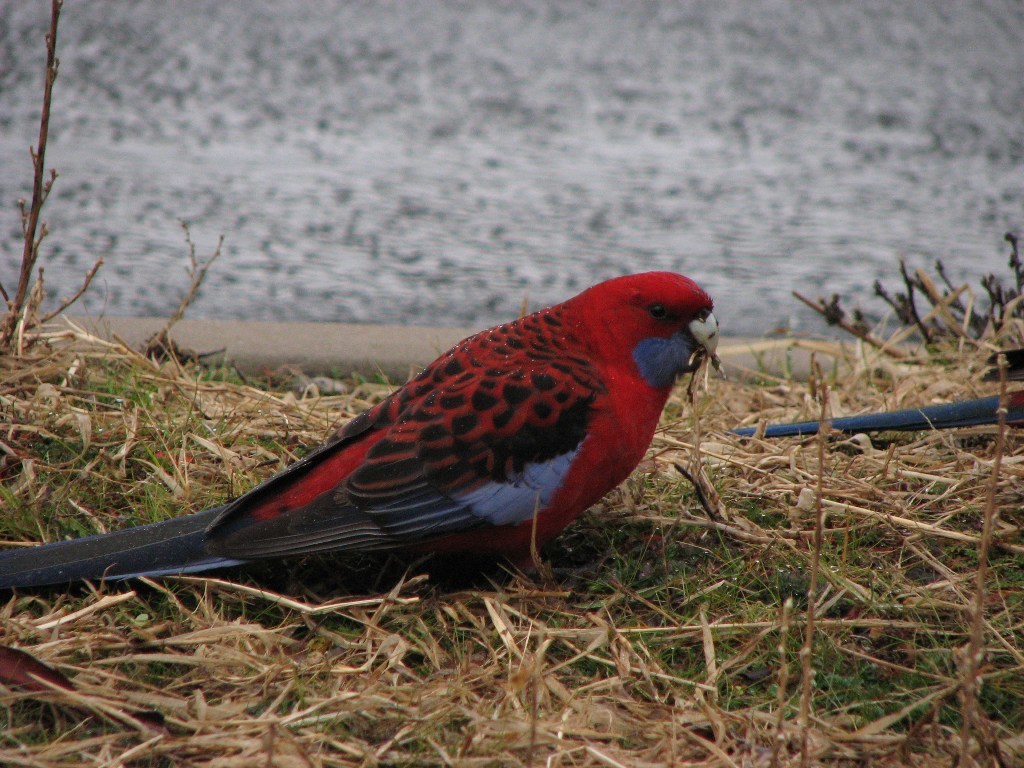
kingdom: Animalia
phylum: Chordata
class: Aves
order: Psittaciformes
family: Psittacidae
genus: Platycercus
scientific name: Platycercus elegans
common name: Crimson rosella
